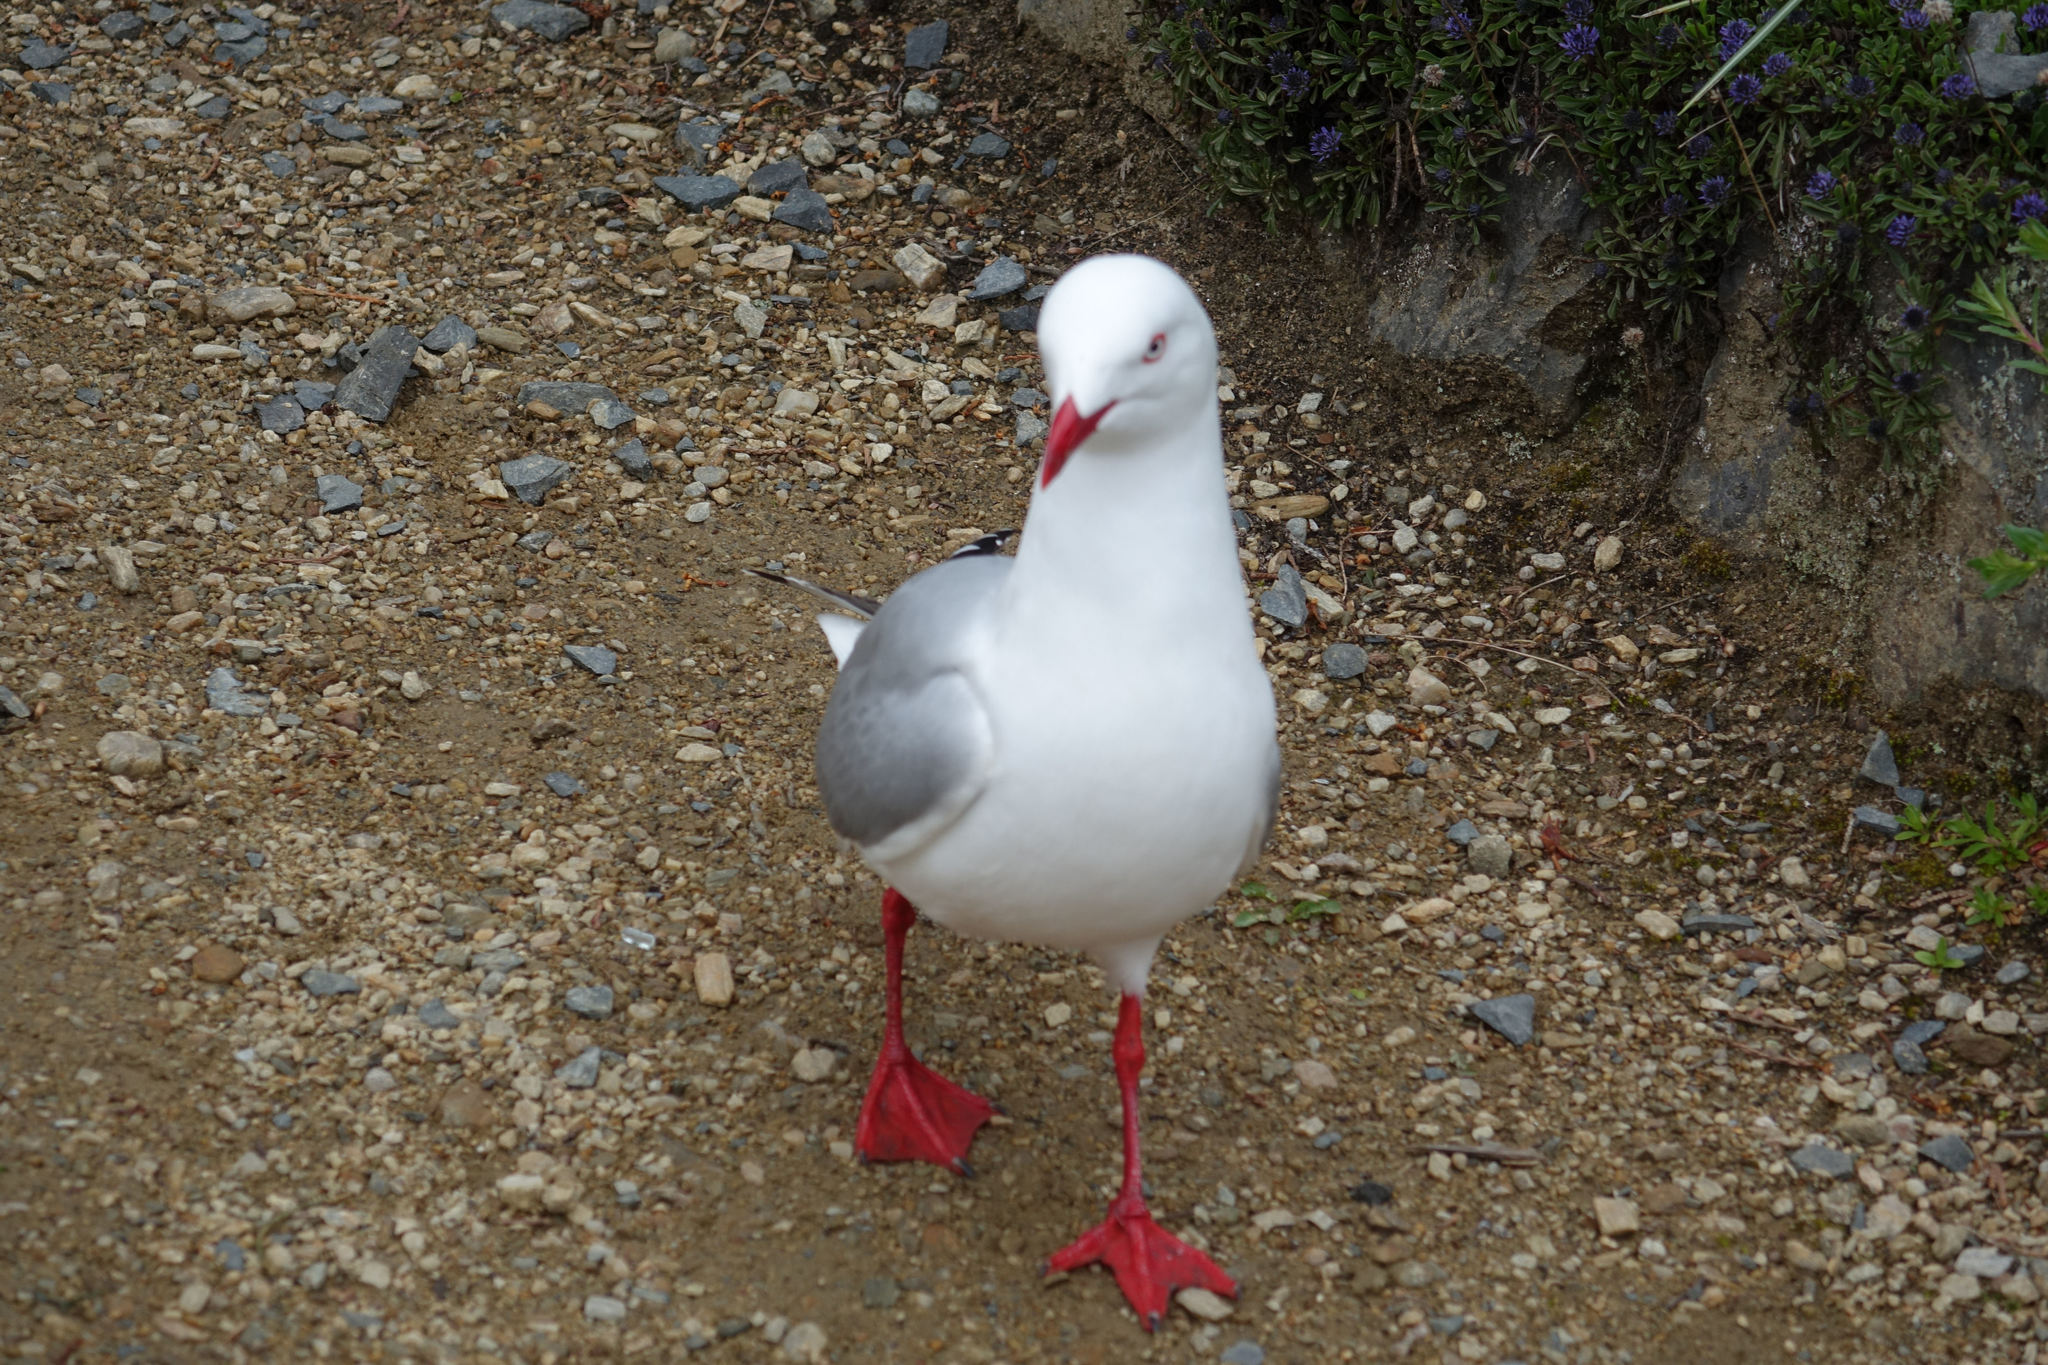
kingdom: Animalia
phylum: Chordata
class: Aves
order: Charadriiformes
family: Laridae
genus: Chroicocephalus
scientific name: Chroicocephalus novaehollandiae
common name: Silver gull
